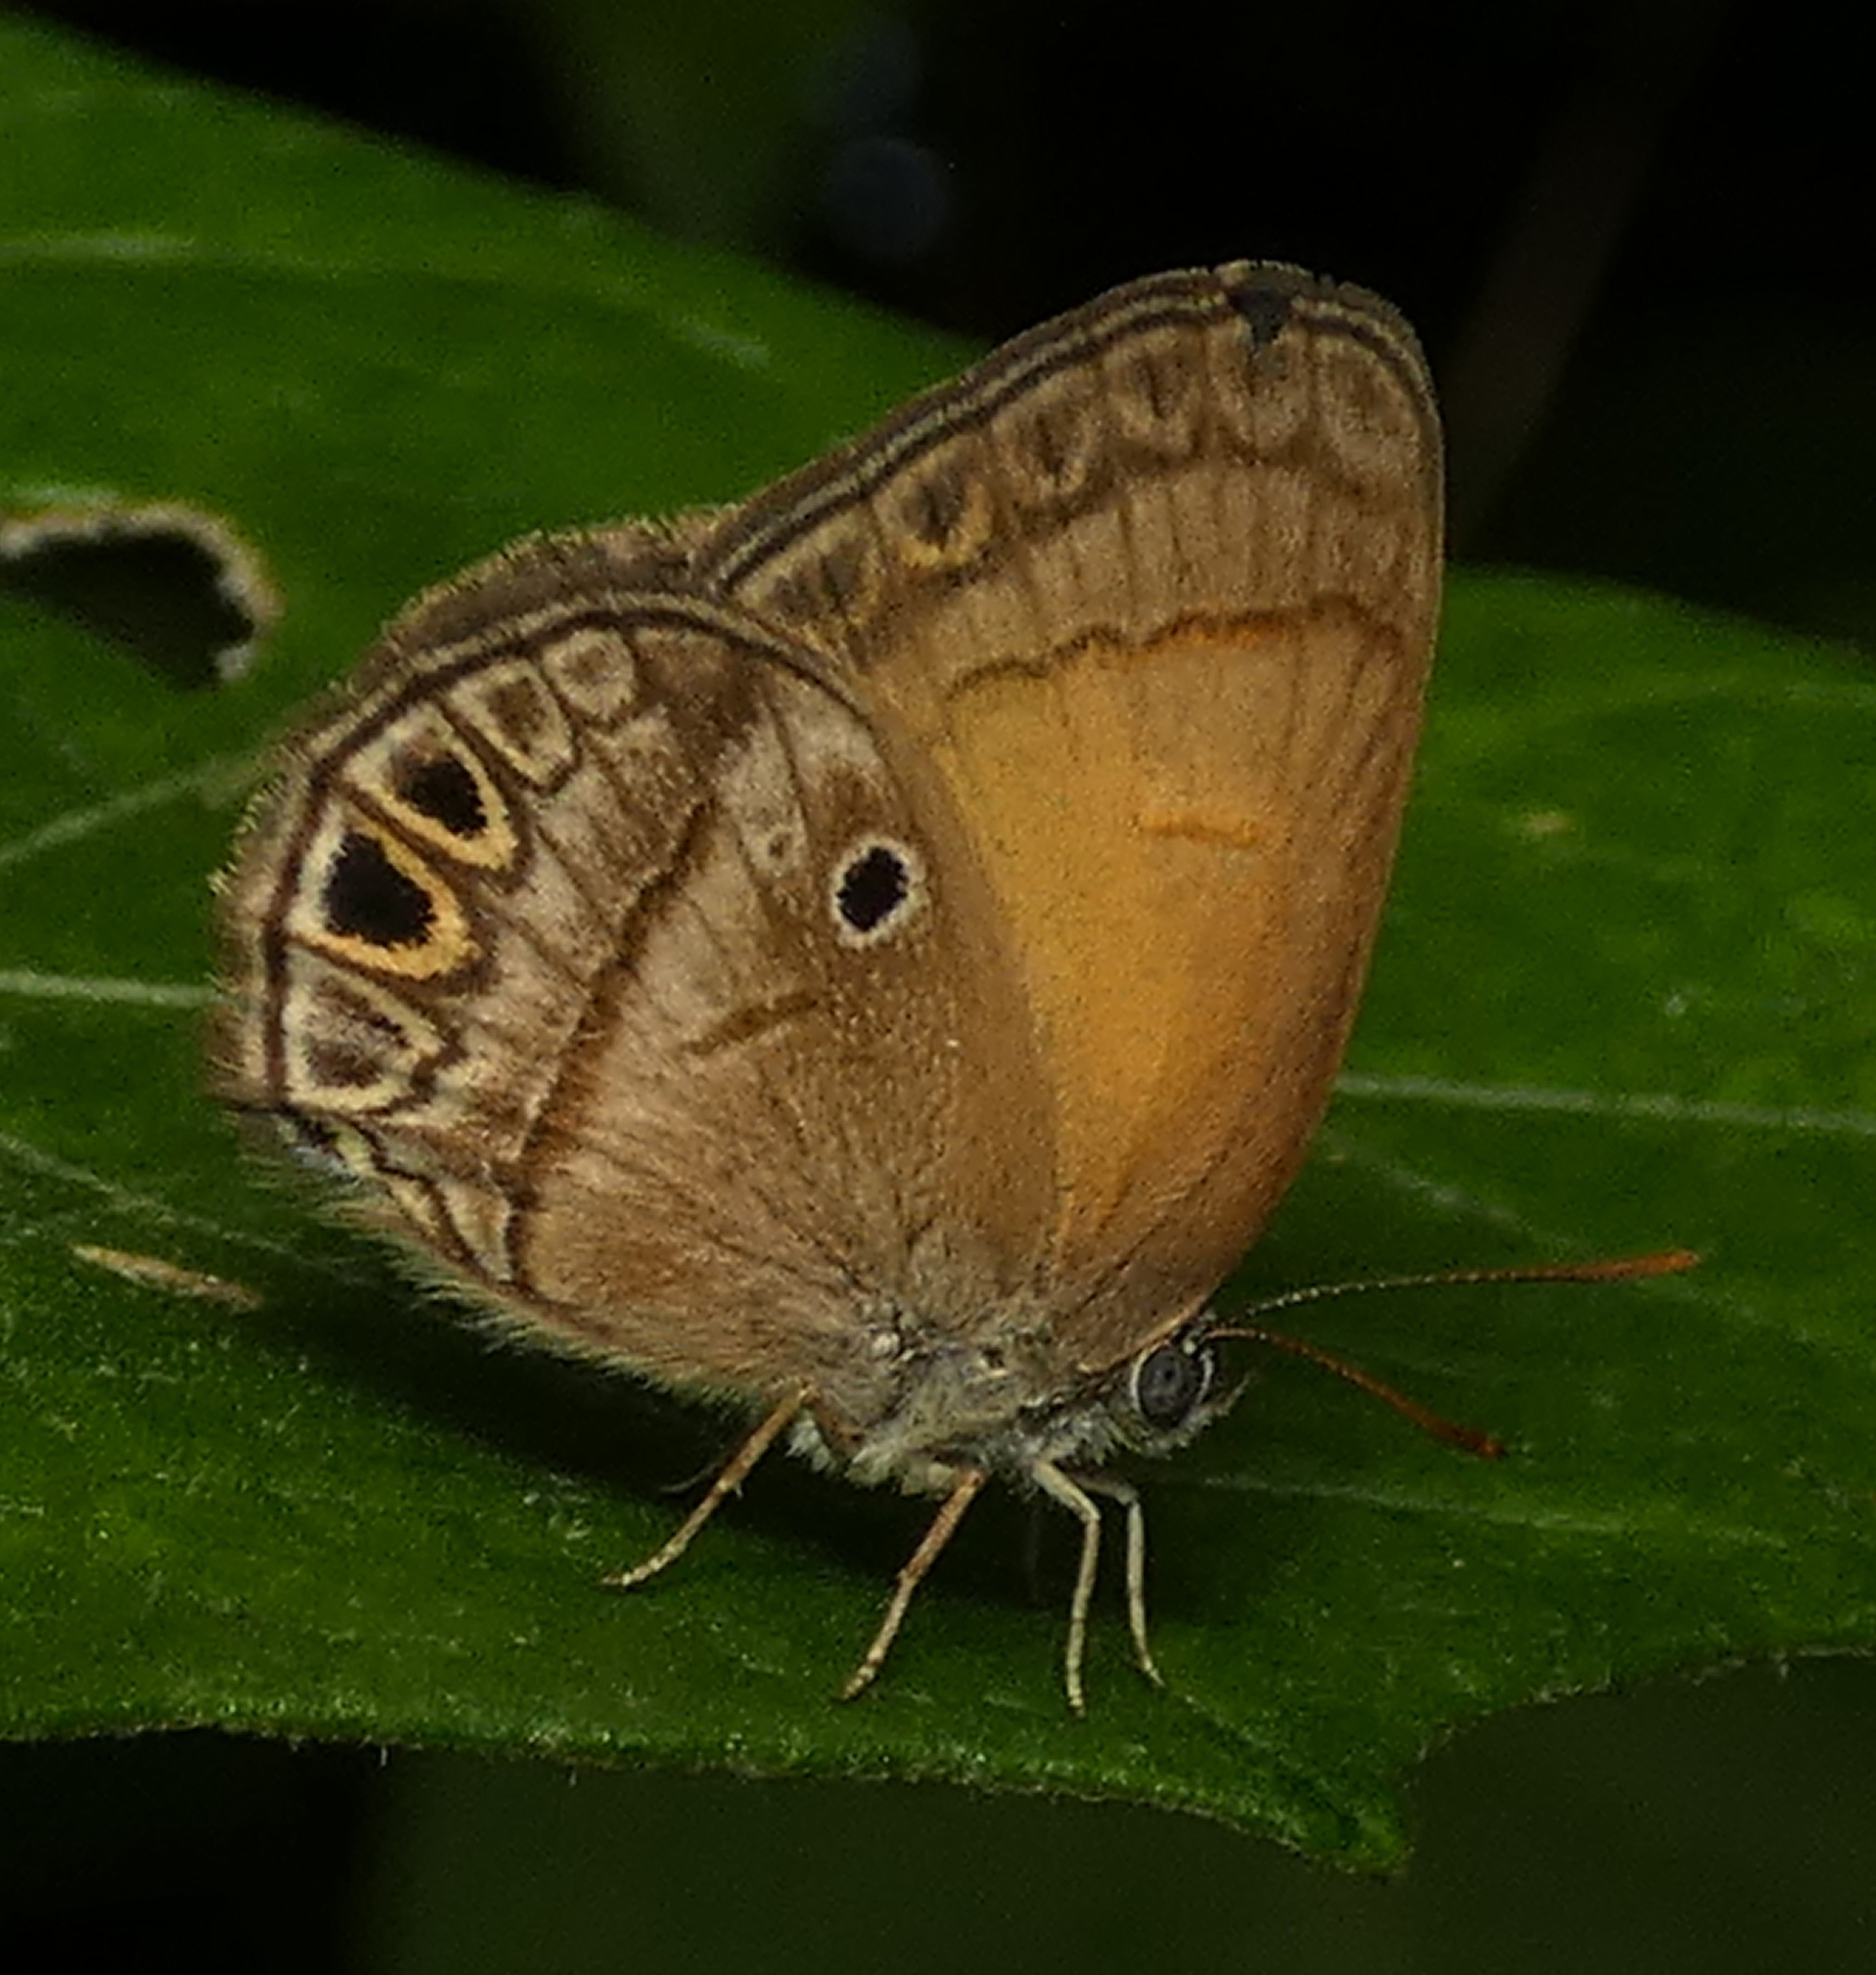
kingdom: Animalia
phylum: Arthropoda
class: Insecta
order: Lepidoptera
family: Lycaenidae
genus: Arawacus
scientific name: Arawacus
